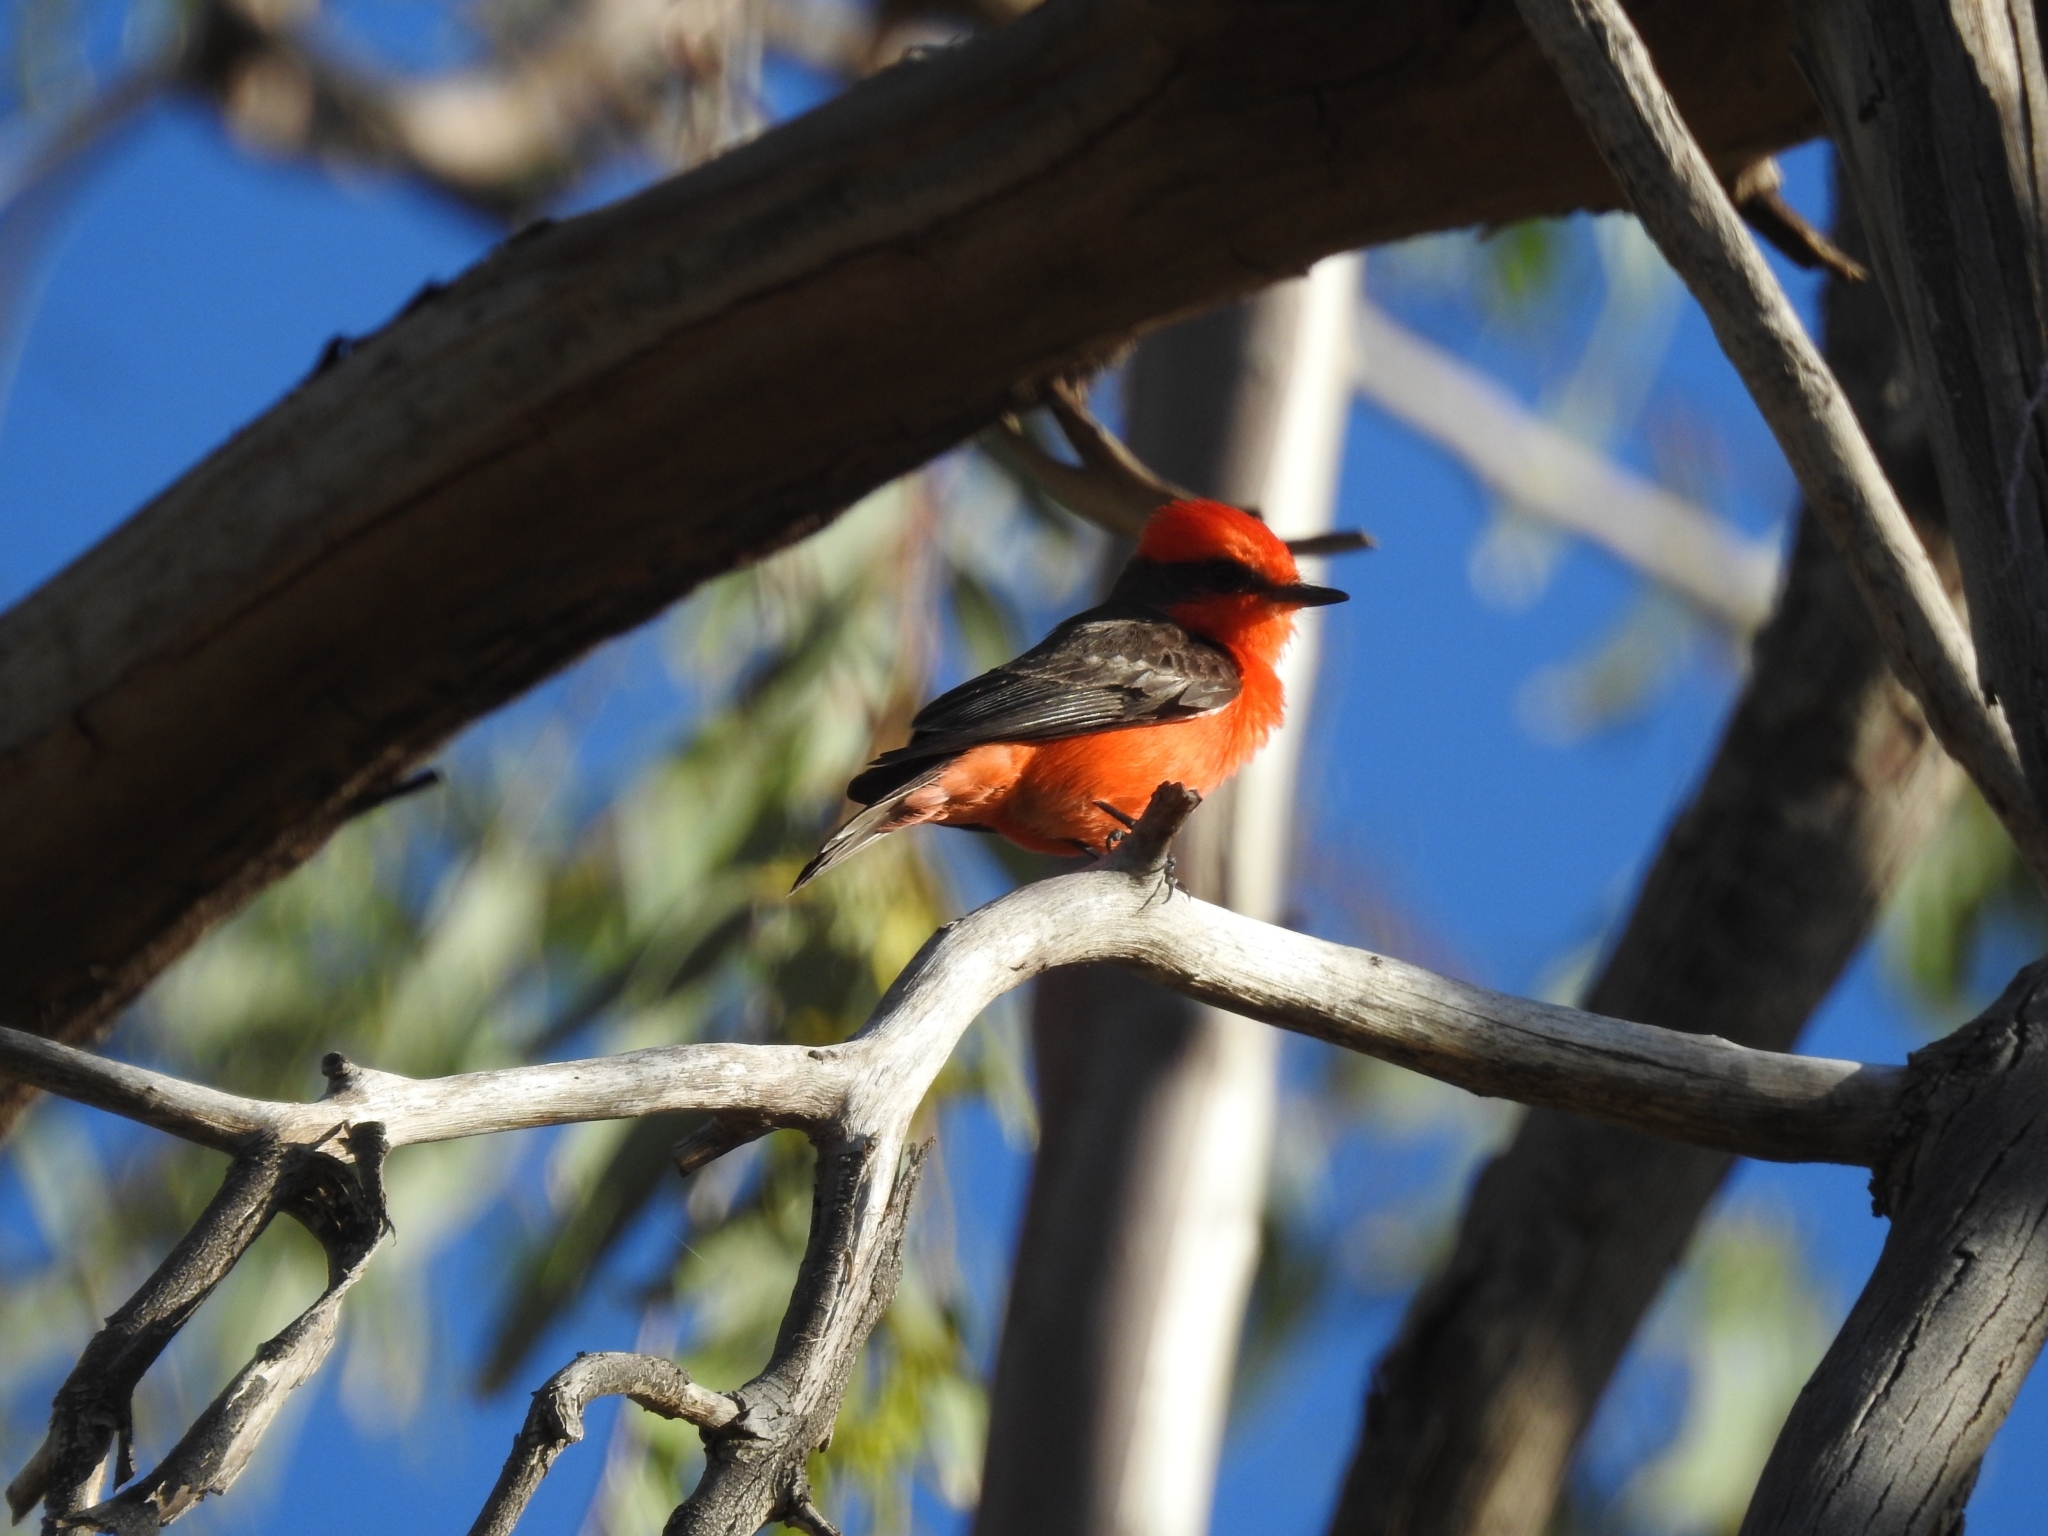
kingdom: Animalia
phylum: Chordata
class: Aves
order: Passeriformes
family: Tyrannidae
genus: Pyrocephalus
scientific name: Pyrocephalus rubinus
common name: Vermilion flycatcher
